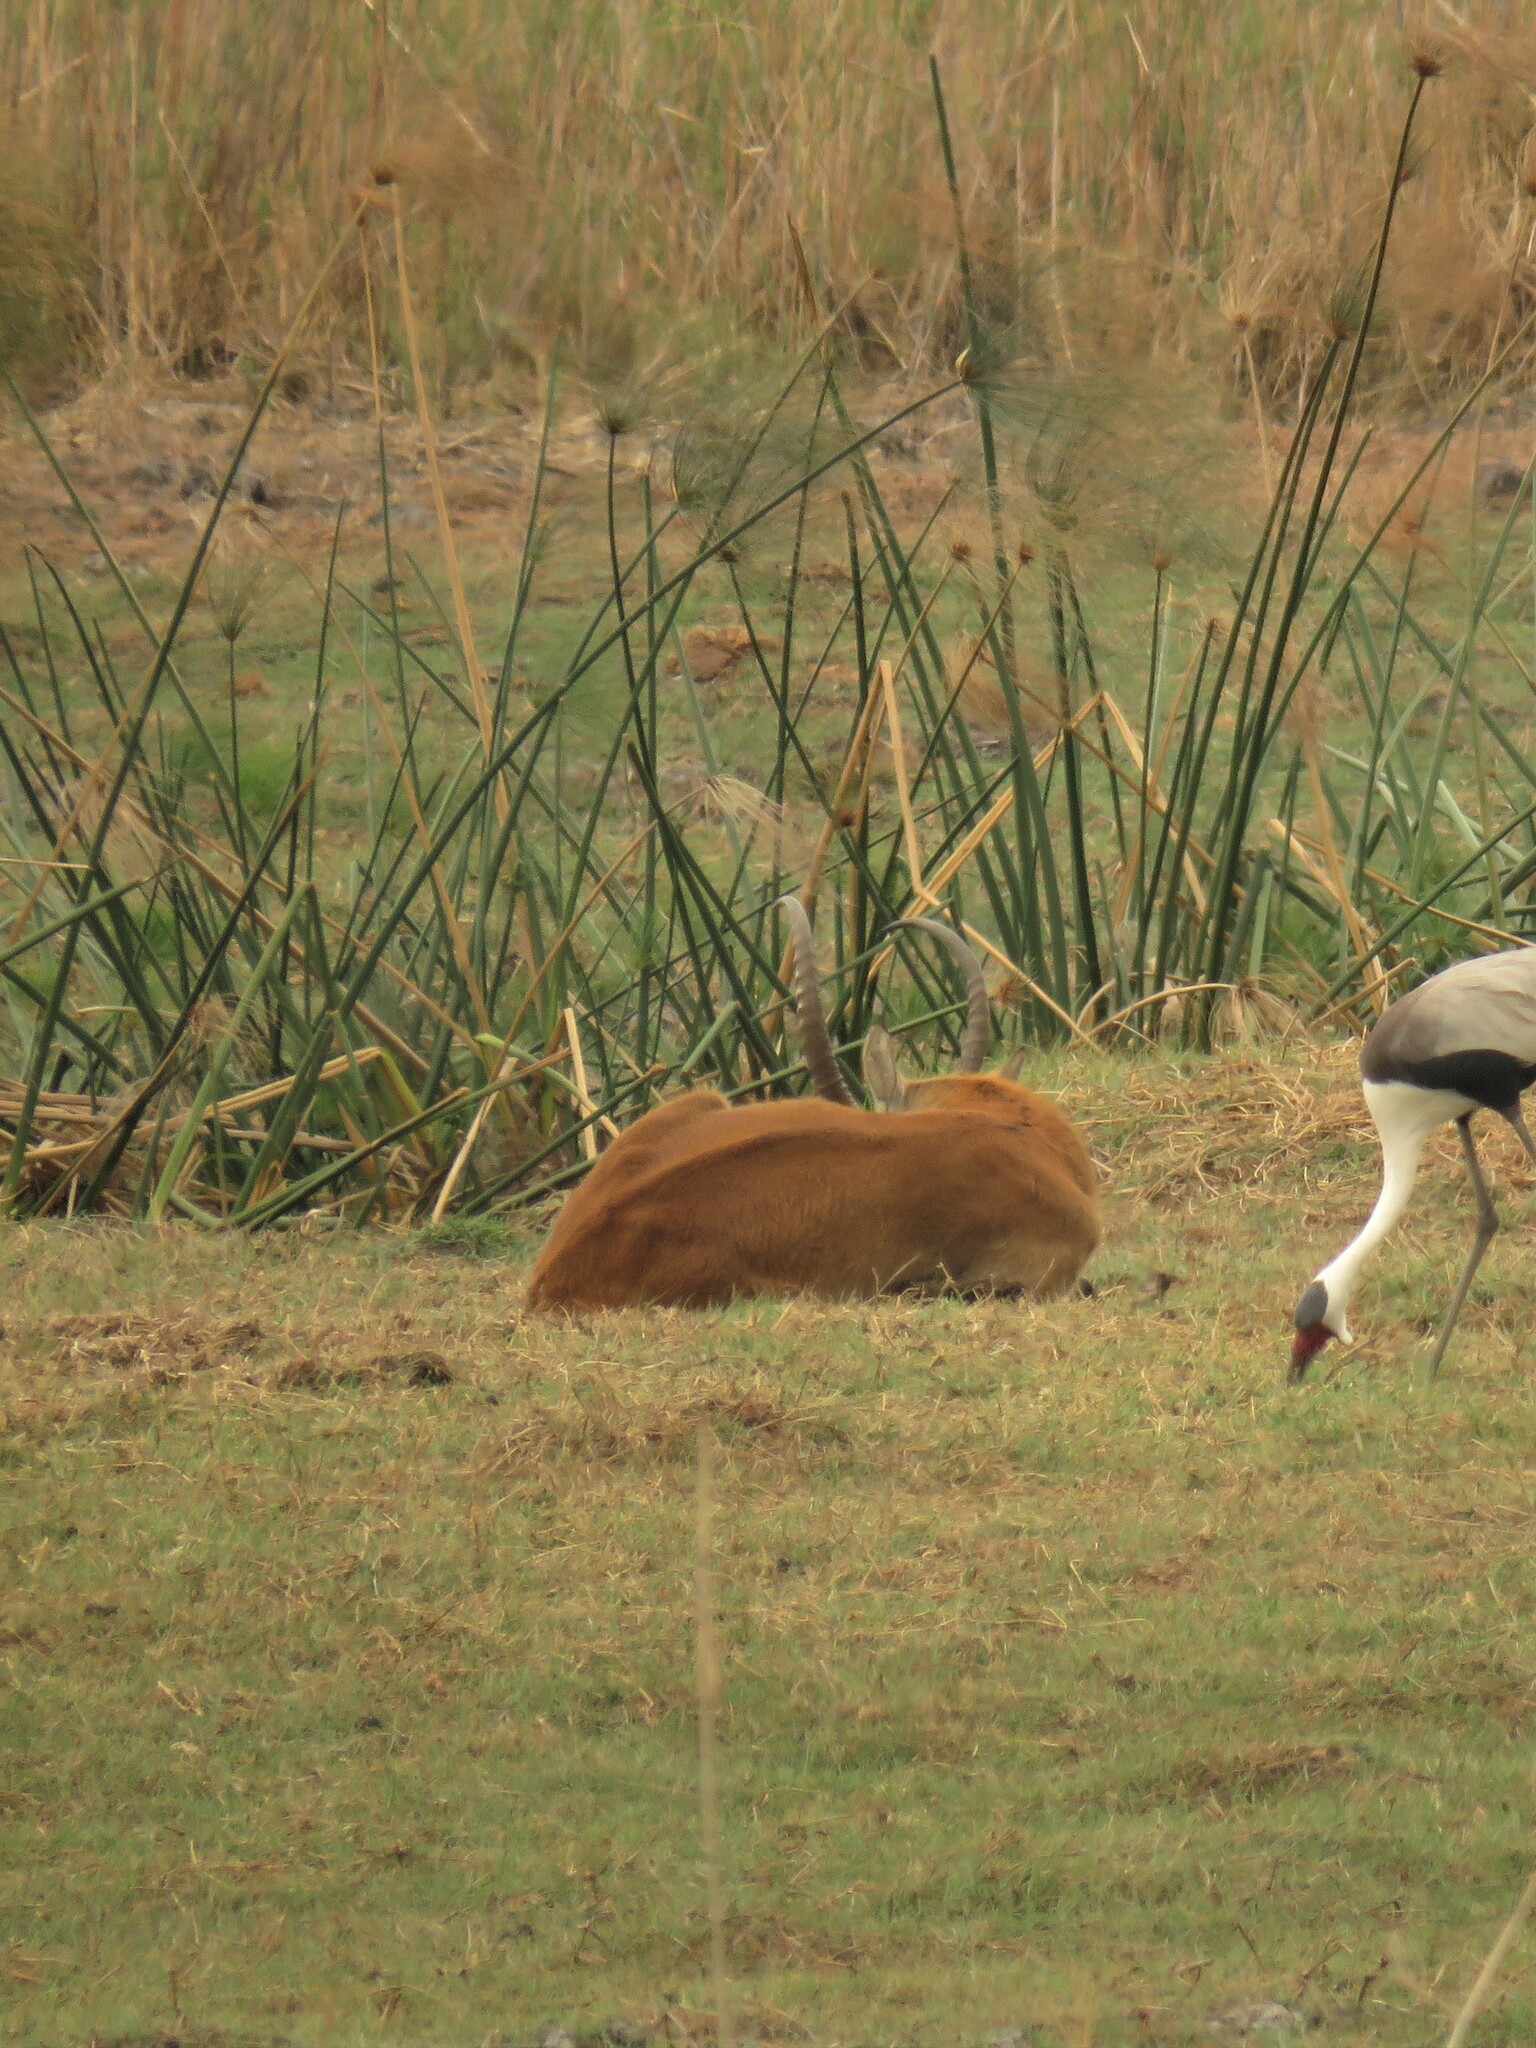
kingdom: Animalia
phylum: Chordata
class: Mammalia
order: Artiodactyla
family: Bovidae
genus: Kobus
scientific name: Kobus leche
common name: Lechwe
